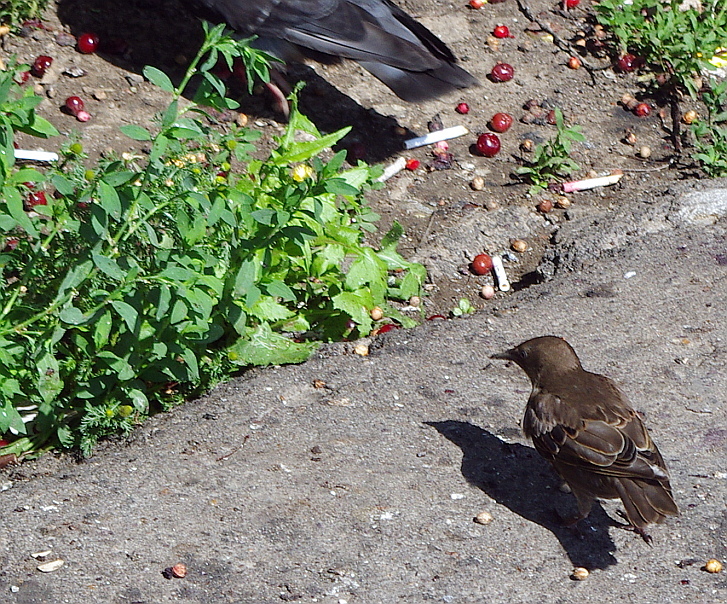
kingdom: Plantae
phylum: Tracheophyta
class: Magnoliopsida
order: Caryophyllales
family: Polygonaceae
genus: Polygonum
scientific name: Polygonum
